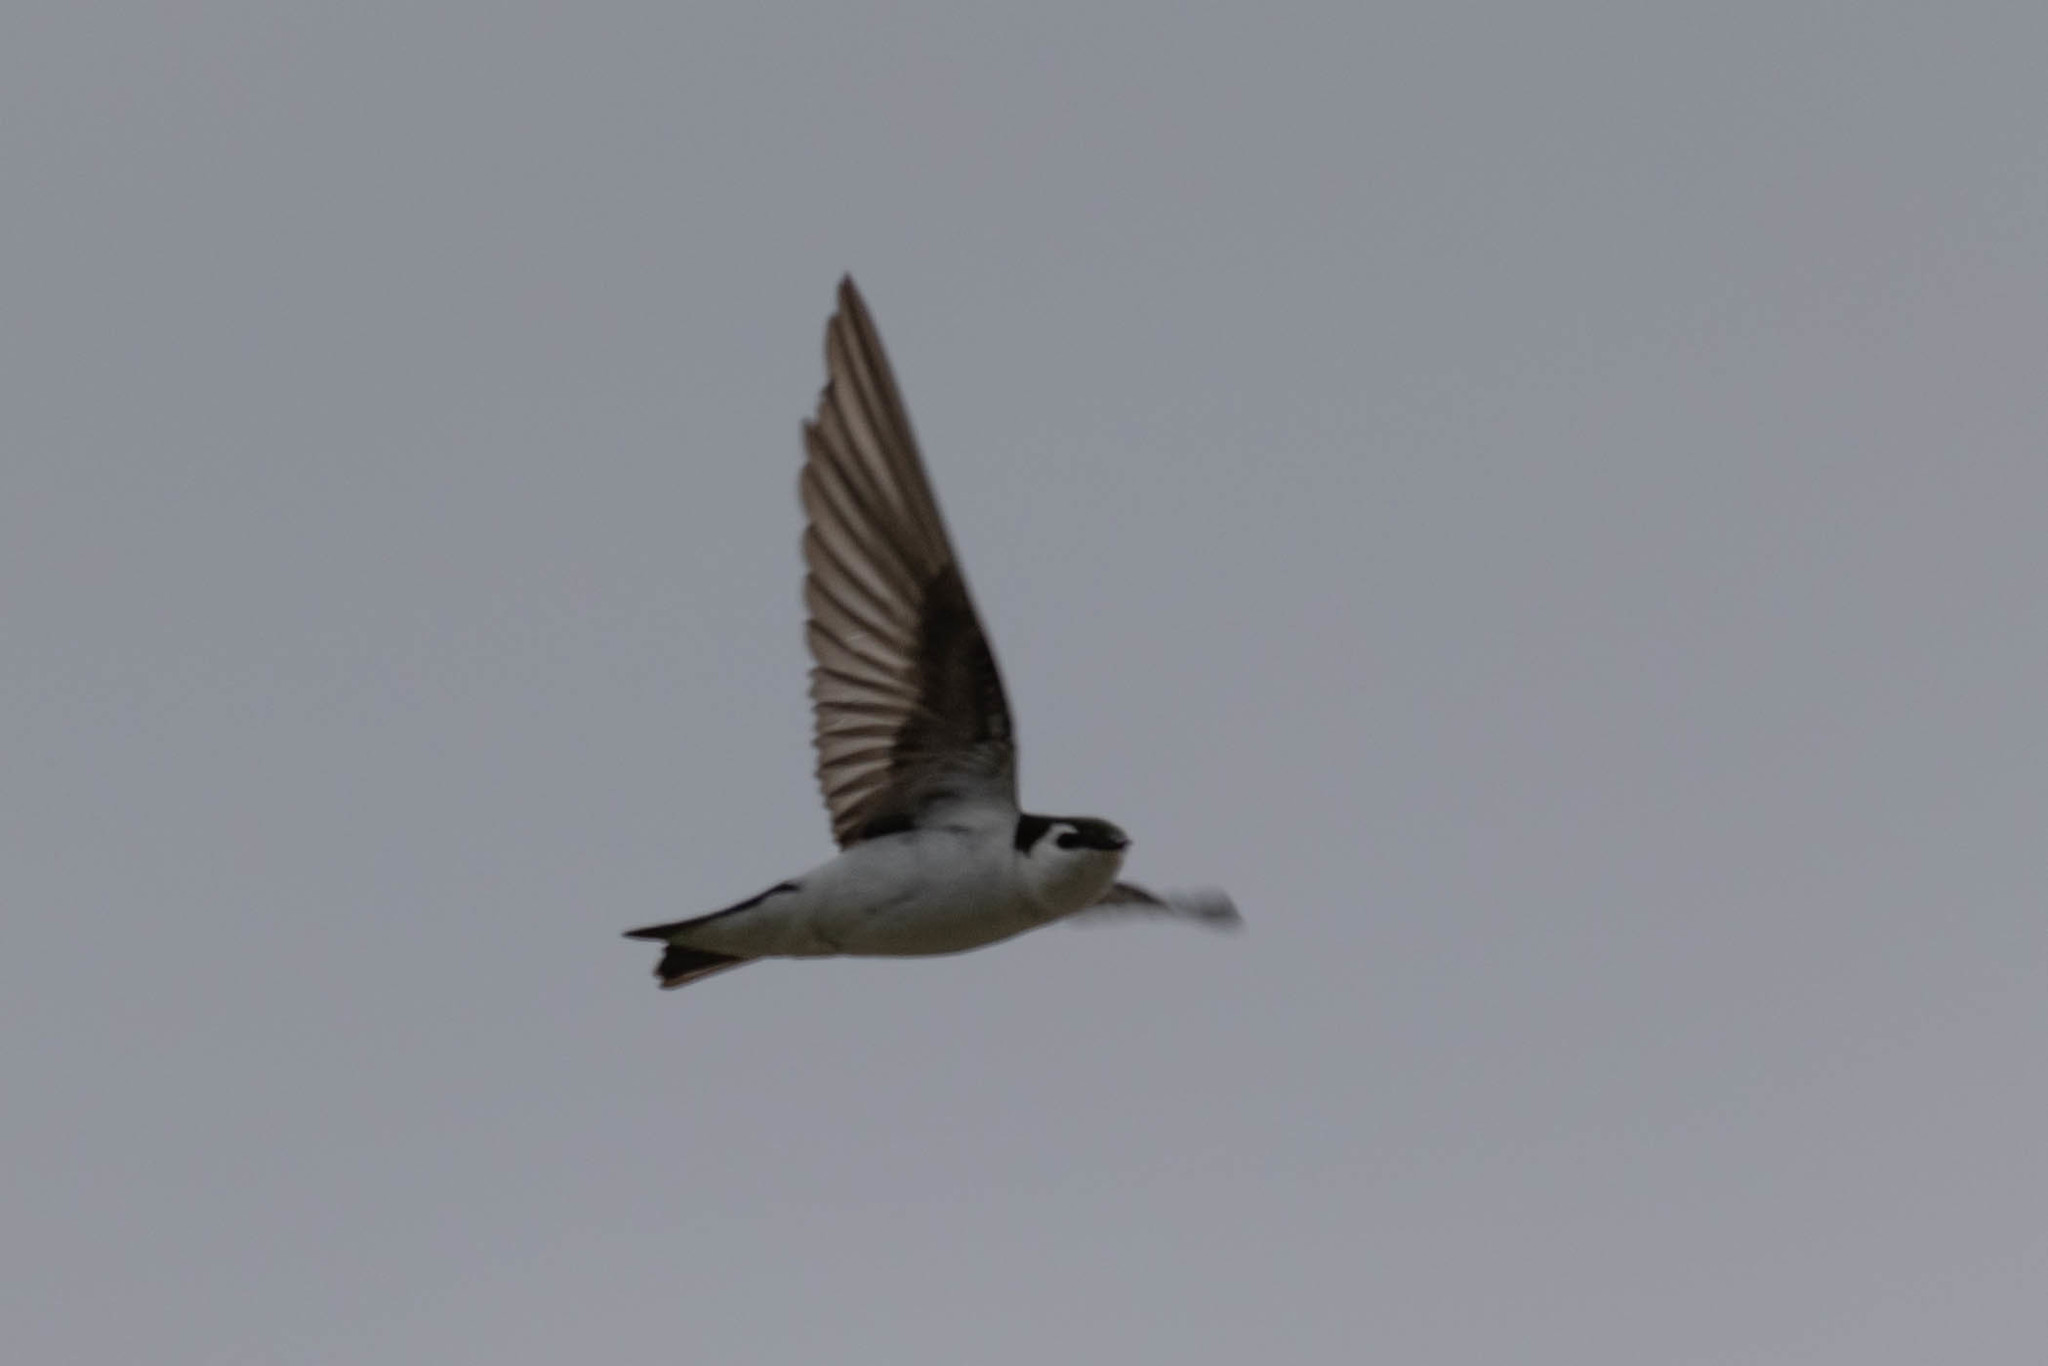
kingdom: Animalia
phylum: Chordata
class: Aves
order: Passeriformes
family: Hirundinidae
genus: Tachycineta
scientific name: Tachycineta thalassina
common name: Violet-green swallow
